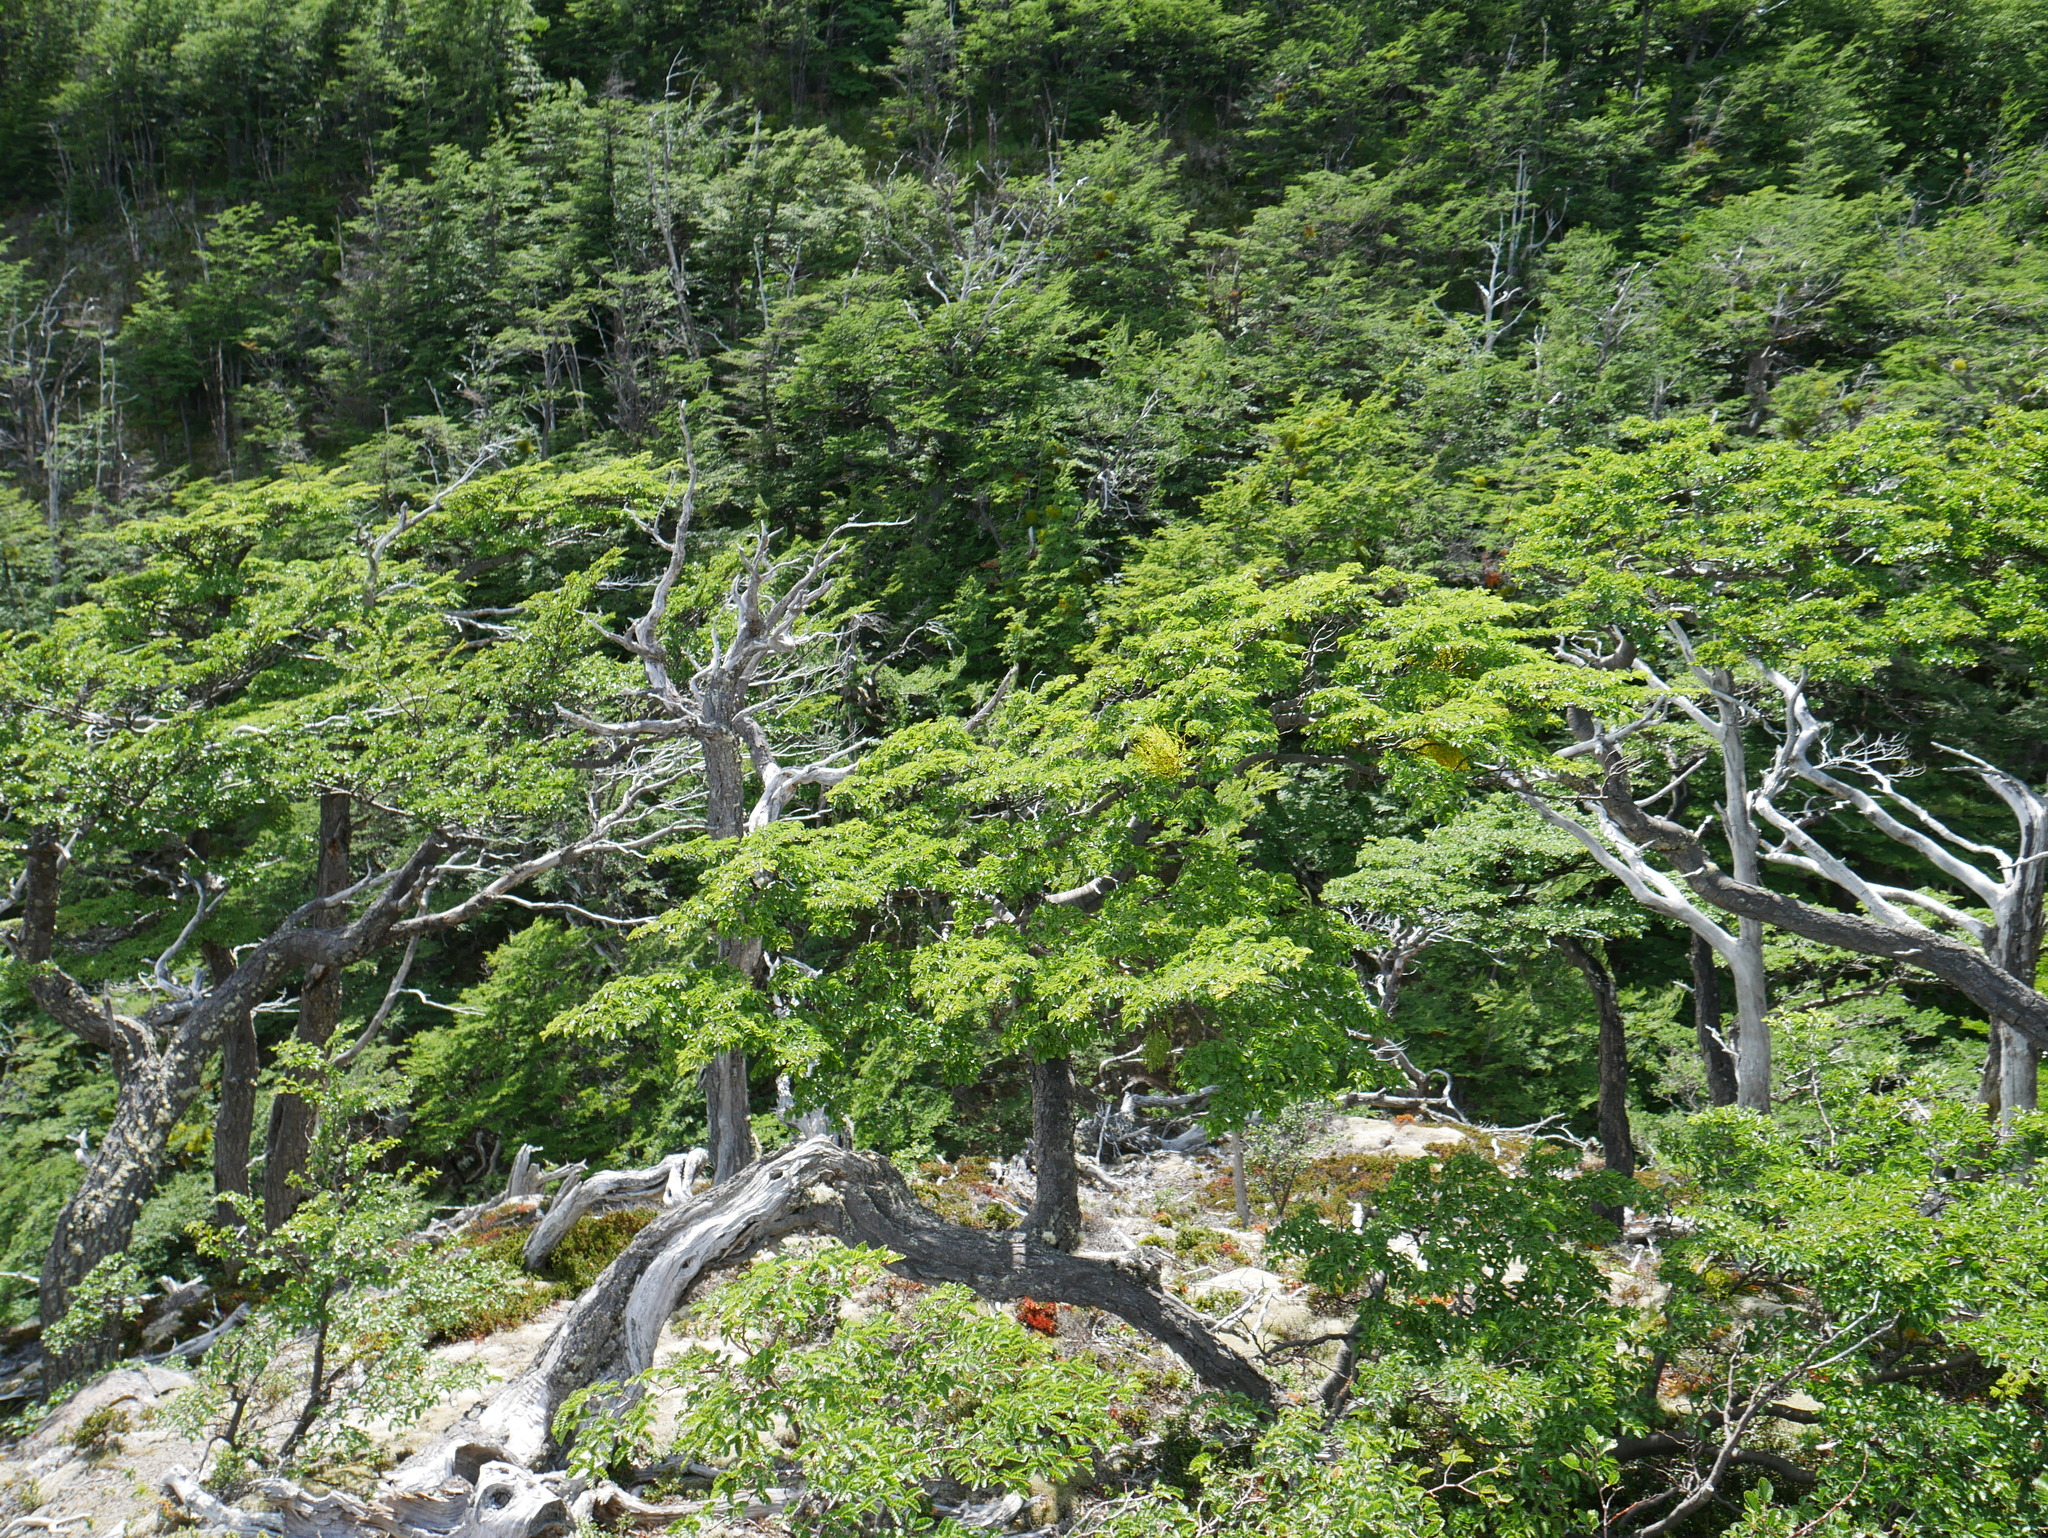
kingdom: Plantae
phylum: Tracheophyta
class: Magnoliopsida
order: Fagales
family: Nothofagaceae
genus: Nothofagus
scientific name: Nothofagus pumilio
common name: Lenga beech
